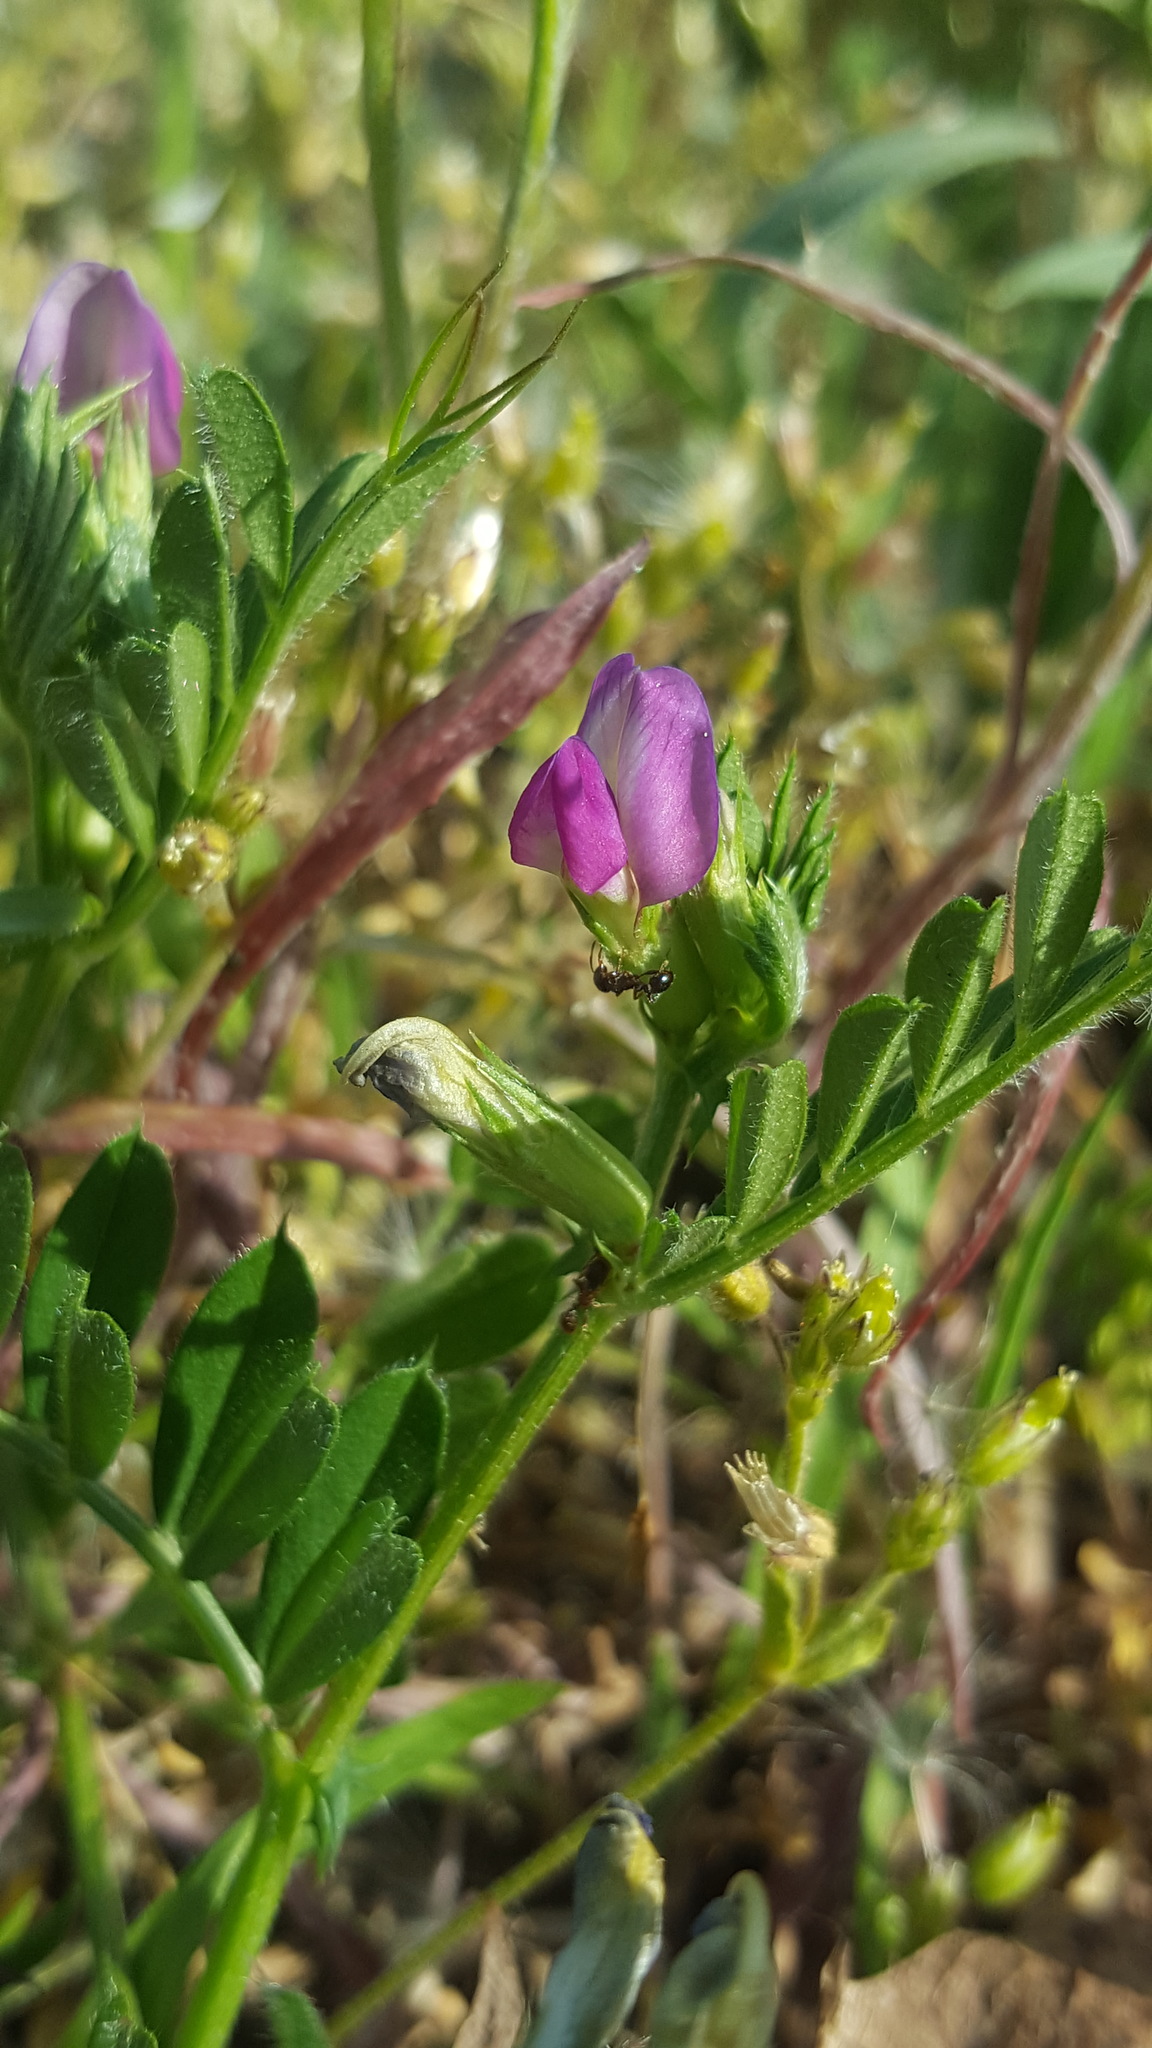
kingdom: Plantae
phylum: Tracheophyta
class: Magnoliopsida
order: Fabales
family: Fabaceae
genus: Vicia
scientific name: Vicia sativa
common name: Garden vetch
